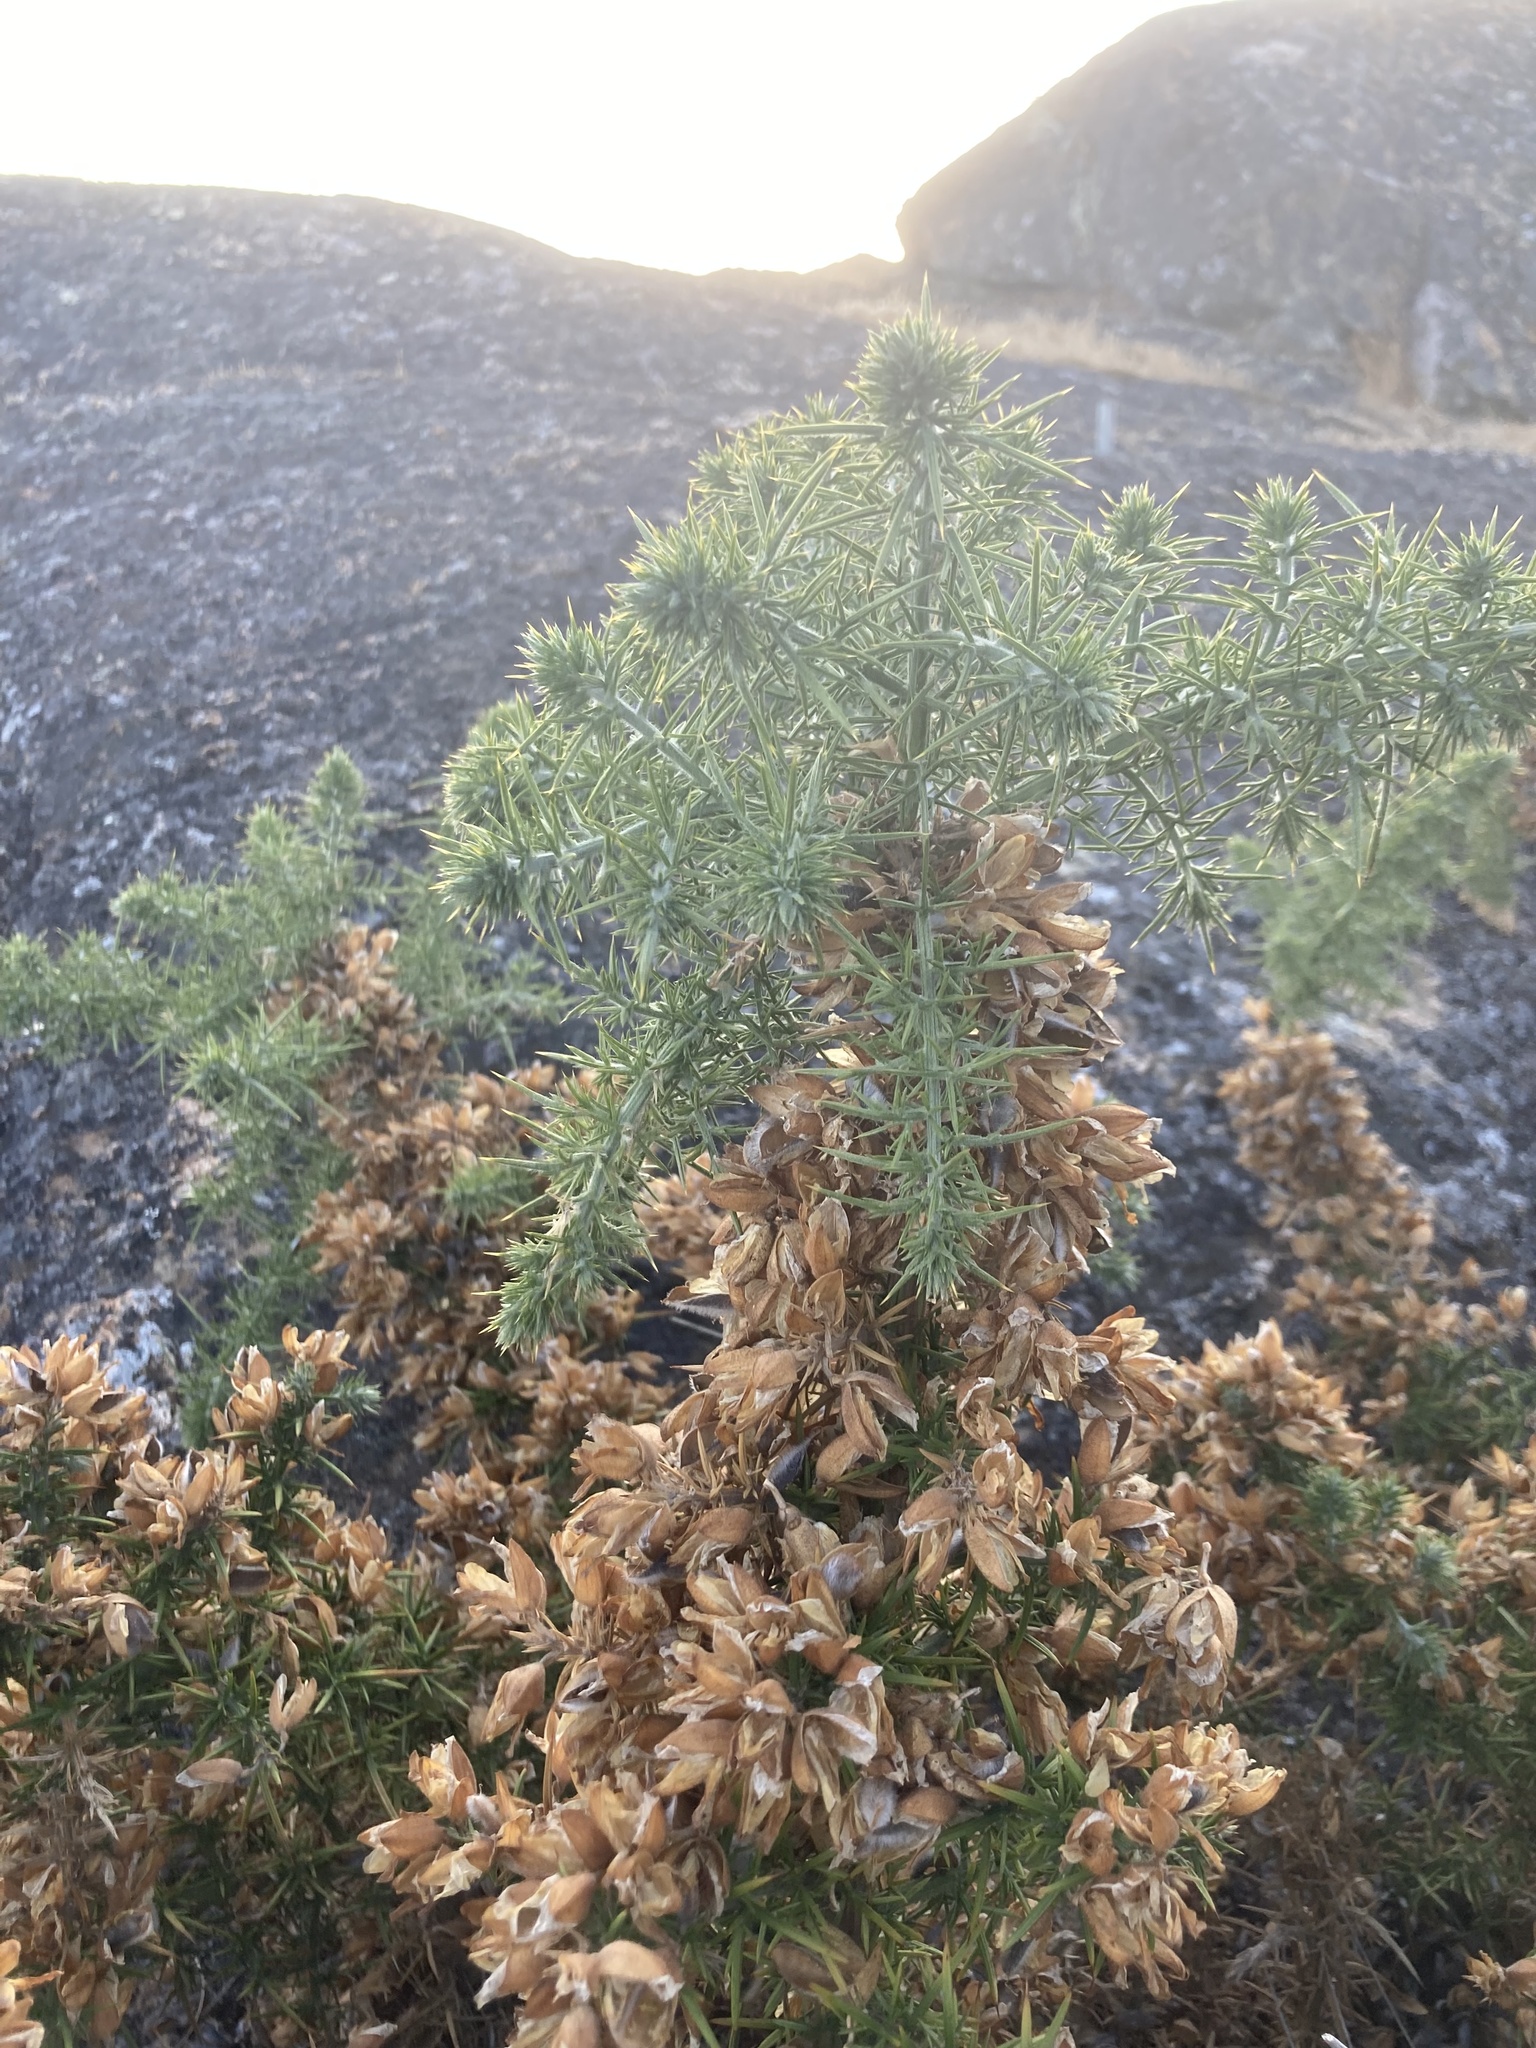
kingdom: Plantae
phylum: Tracheophyta
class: Magnoliopsida
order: Fabales
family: Fabaceae
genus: Ulex
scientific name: Ulex europaeus
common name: Common gorse
